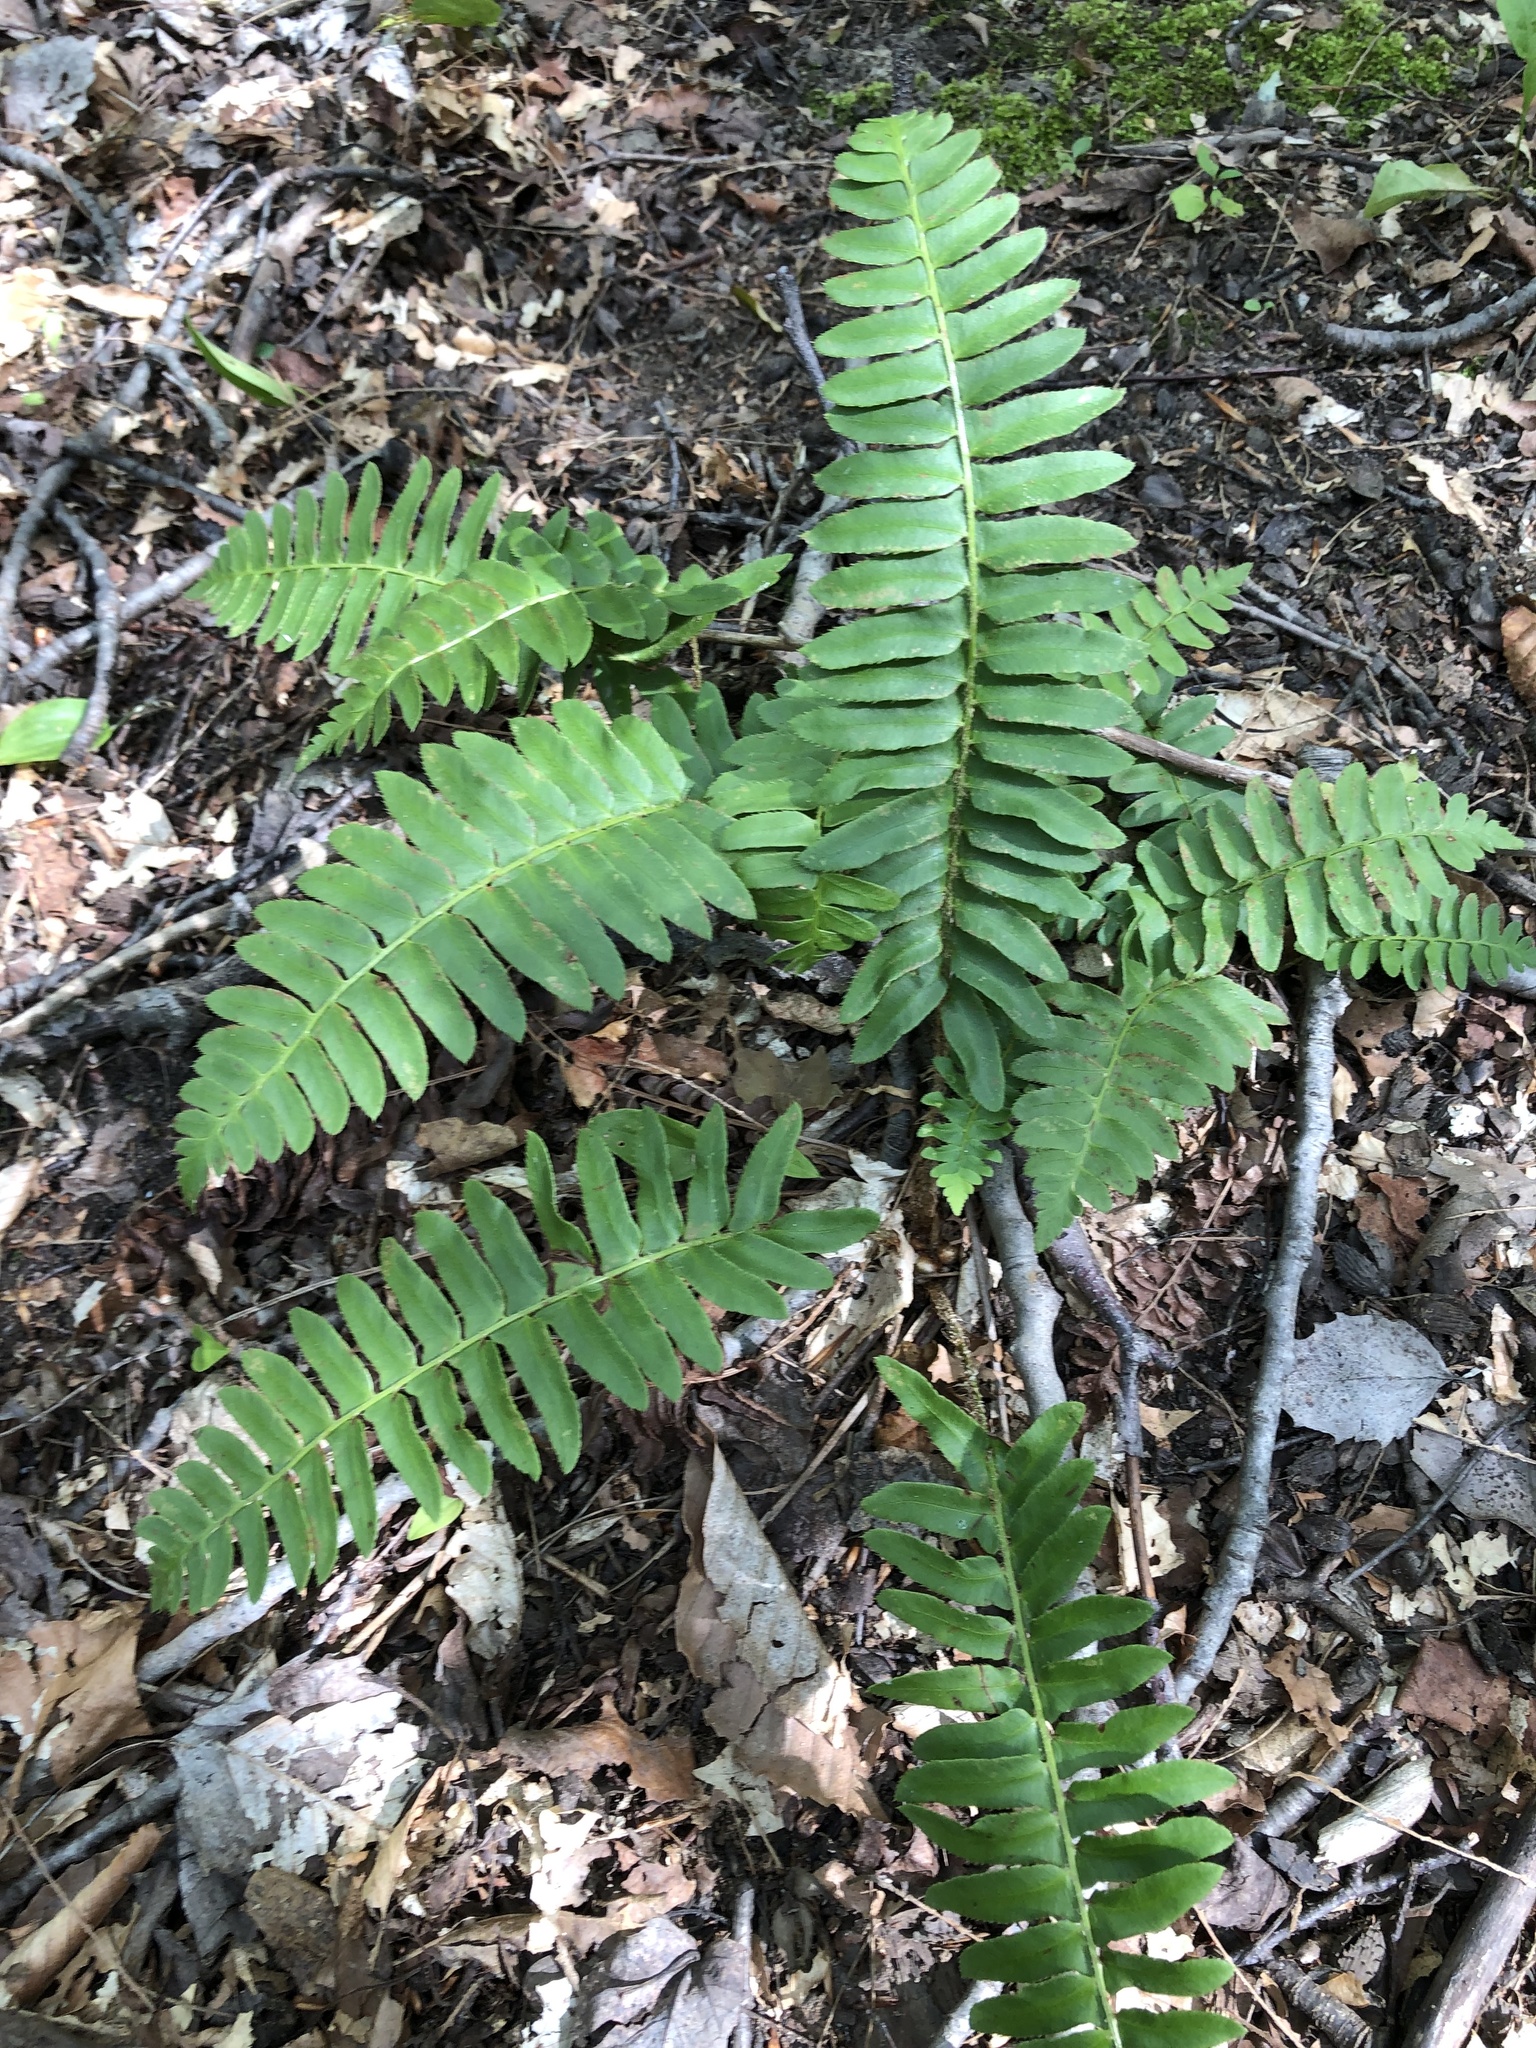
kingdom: Plantae
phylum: Tracheophyta
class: Polypodiopsida
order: Polypodiales
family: Dryopteridaceae
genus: Polystichum
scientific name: Polystichum acrostichoides
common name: Christmas fern
